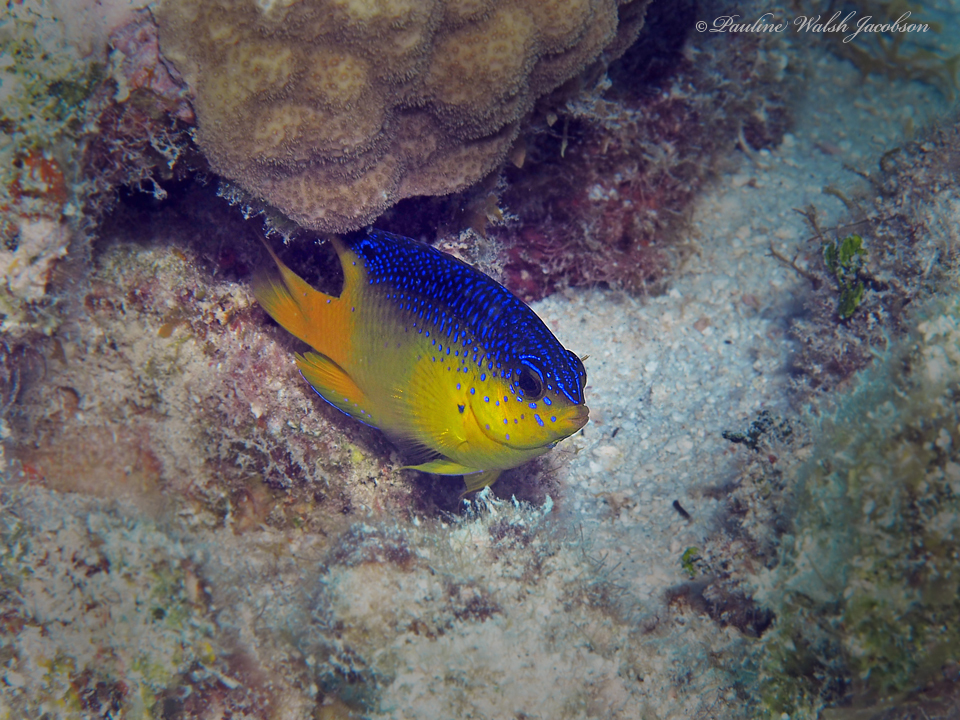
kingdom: Animalia
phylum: Chordata
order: Perciformes
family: Pomacentridae
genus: Stegastes
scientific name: Stegastes leucostictus
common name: Beaugregory
